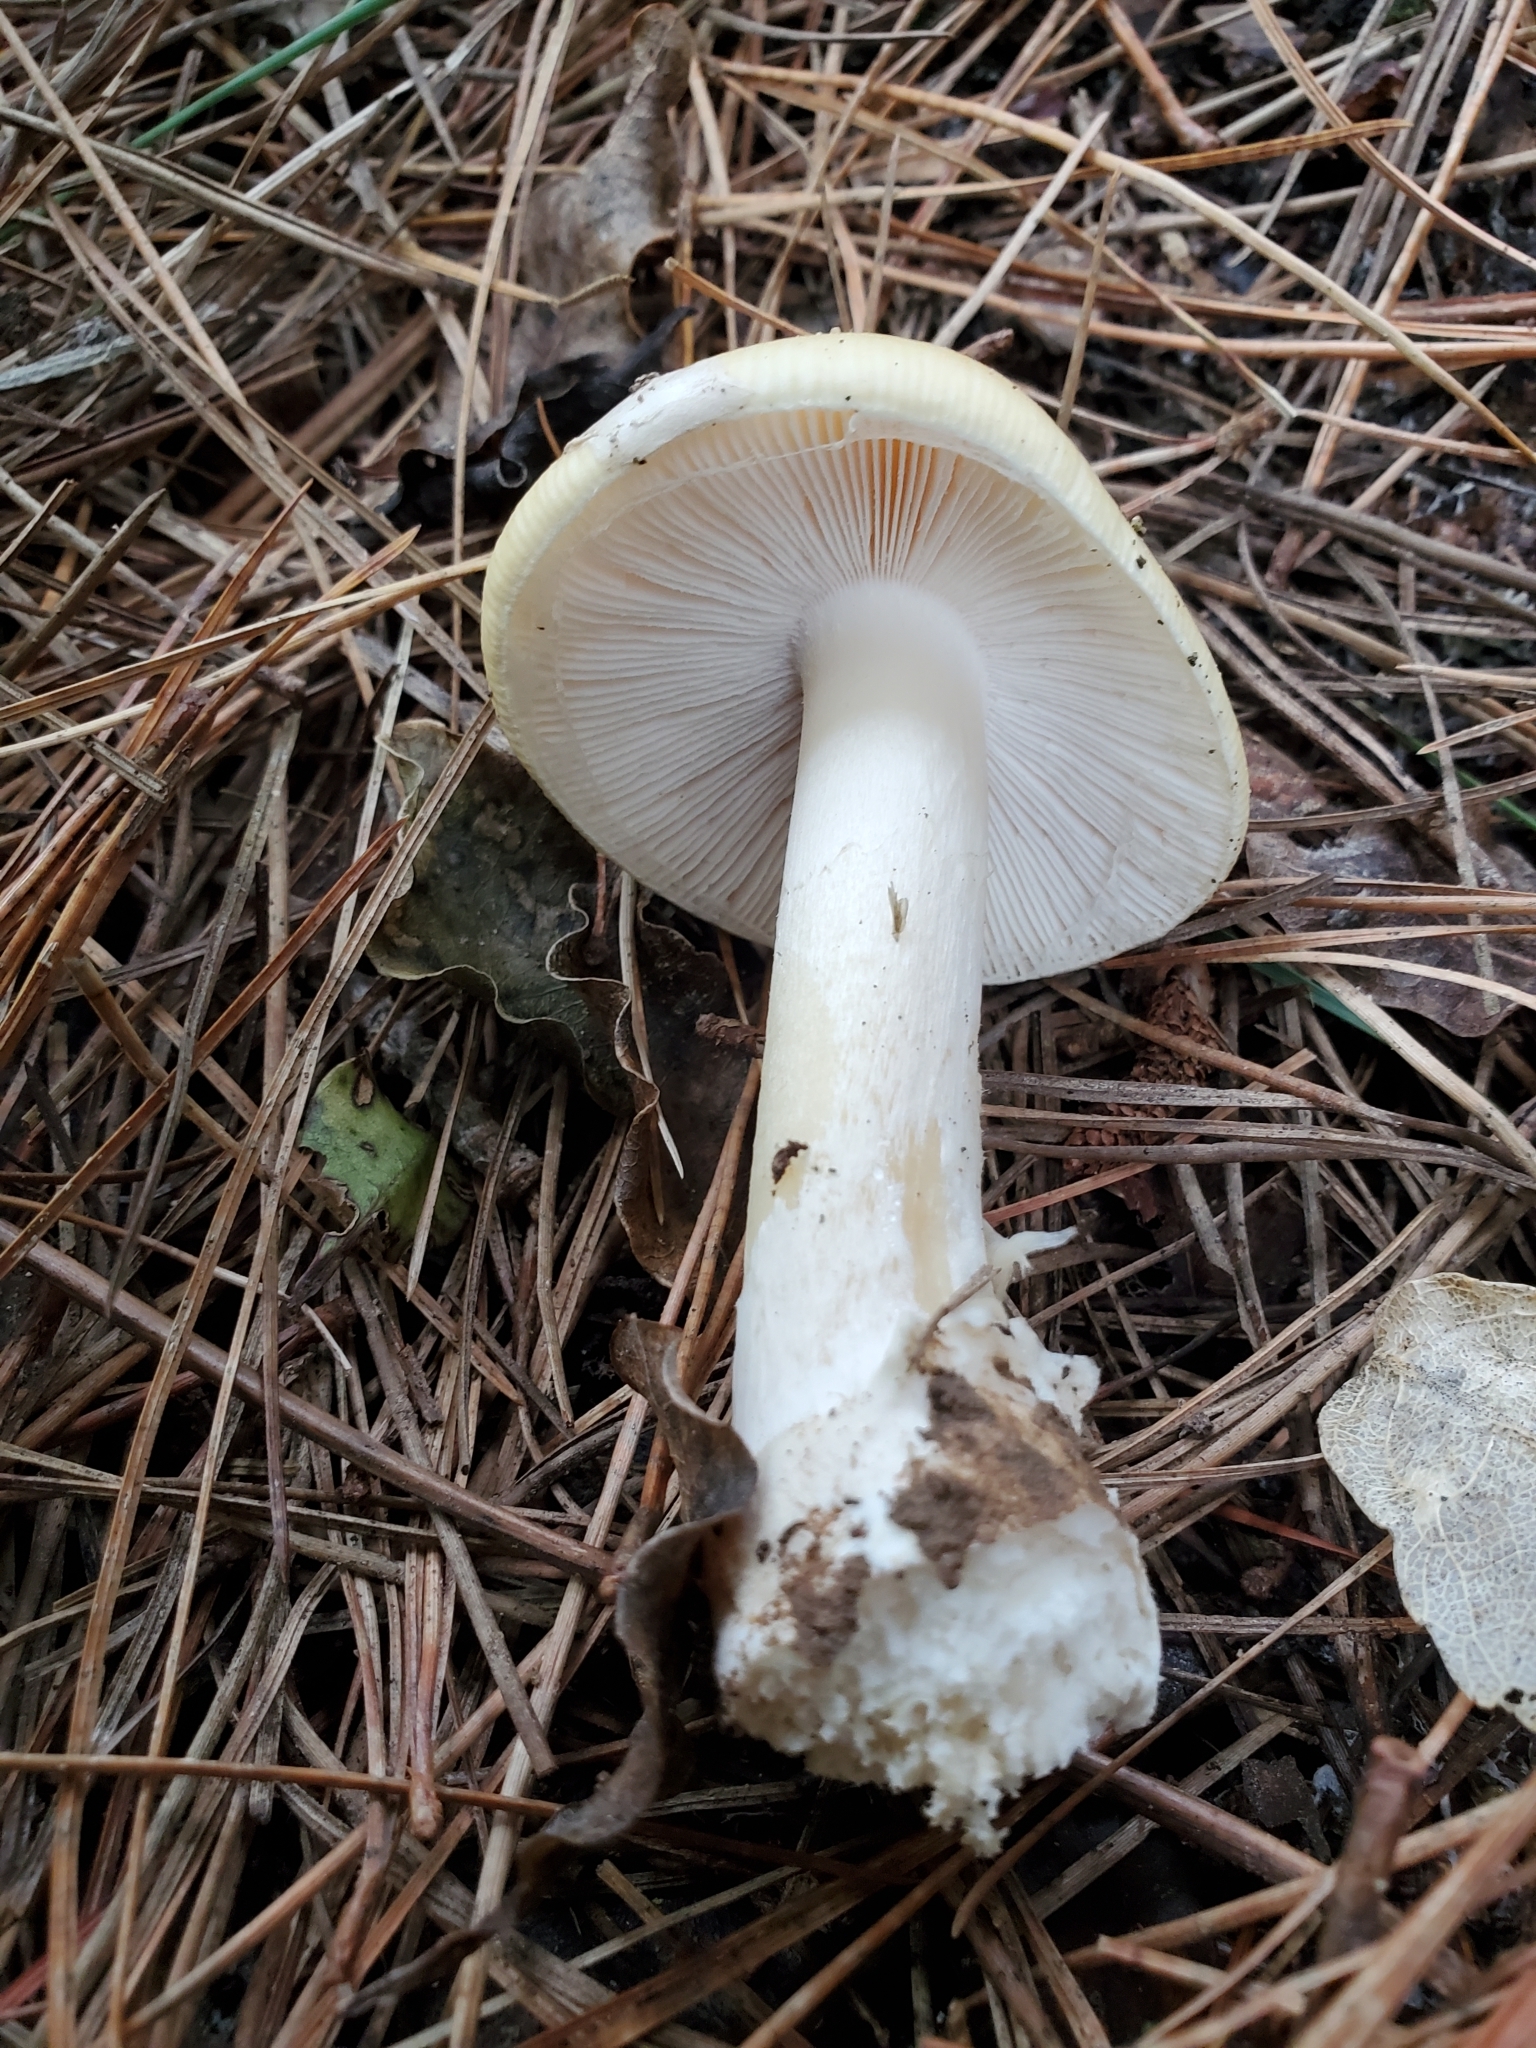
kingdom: Fungi
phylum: Basidiomycota
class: Agaricomycetes
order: Agaricales
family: Amanitaceae
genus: Amanita
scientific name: Amanita gemmata
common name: Jewelled amanita
